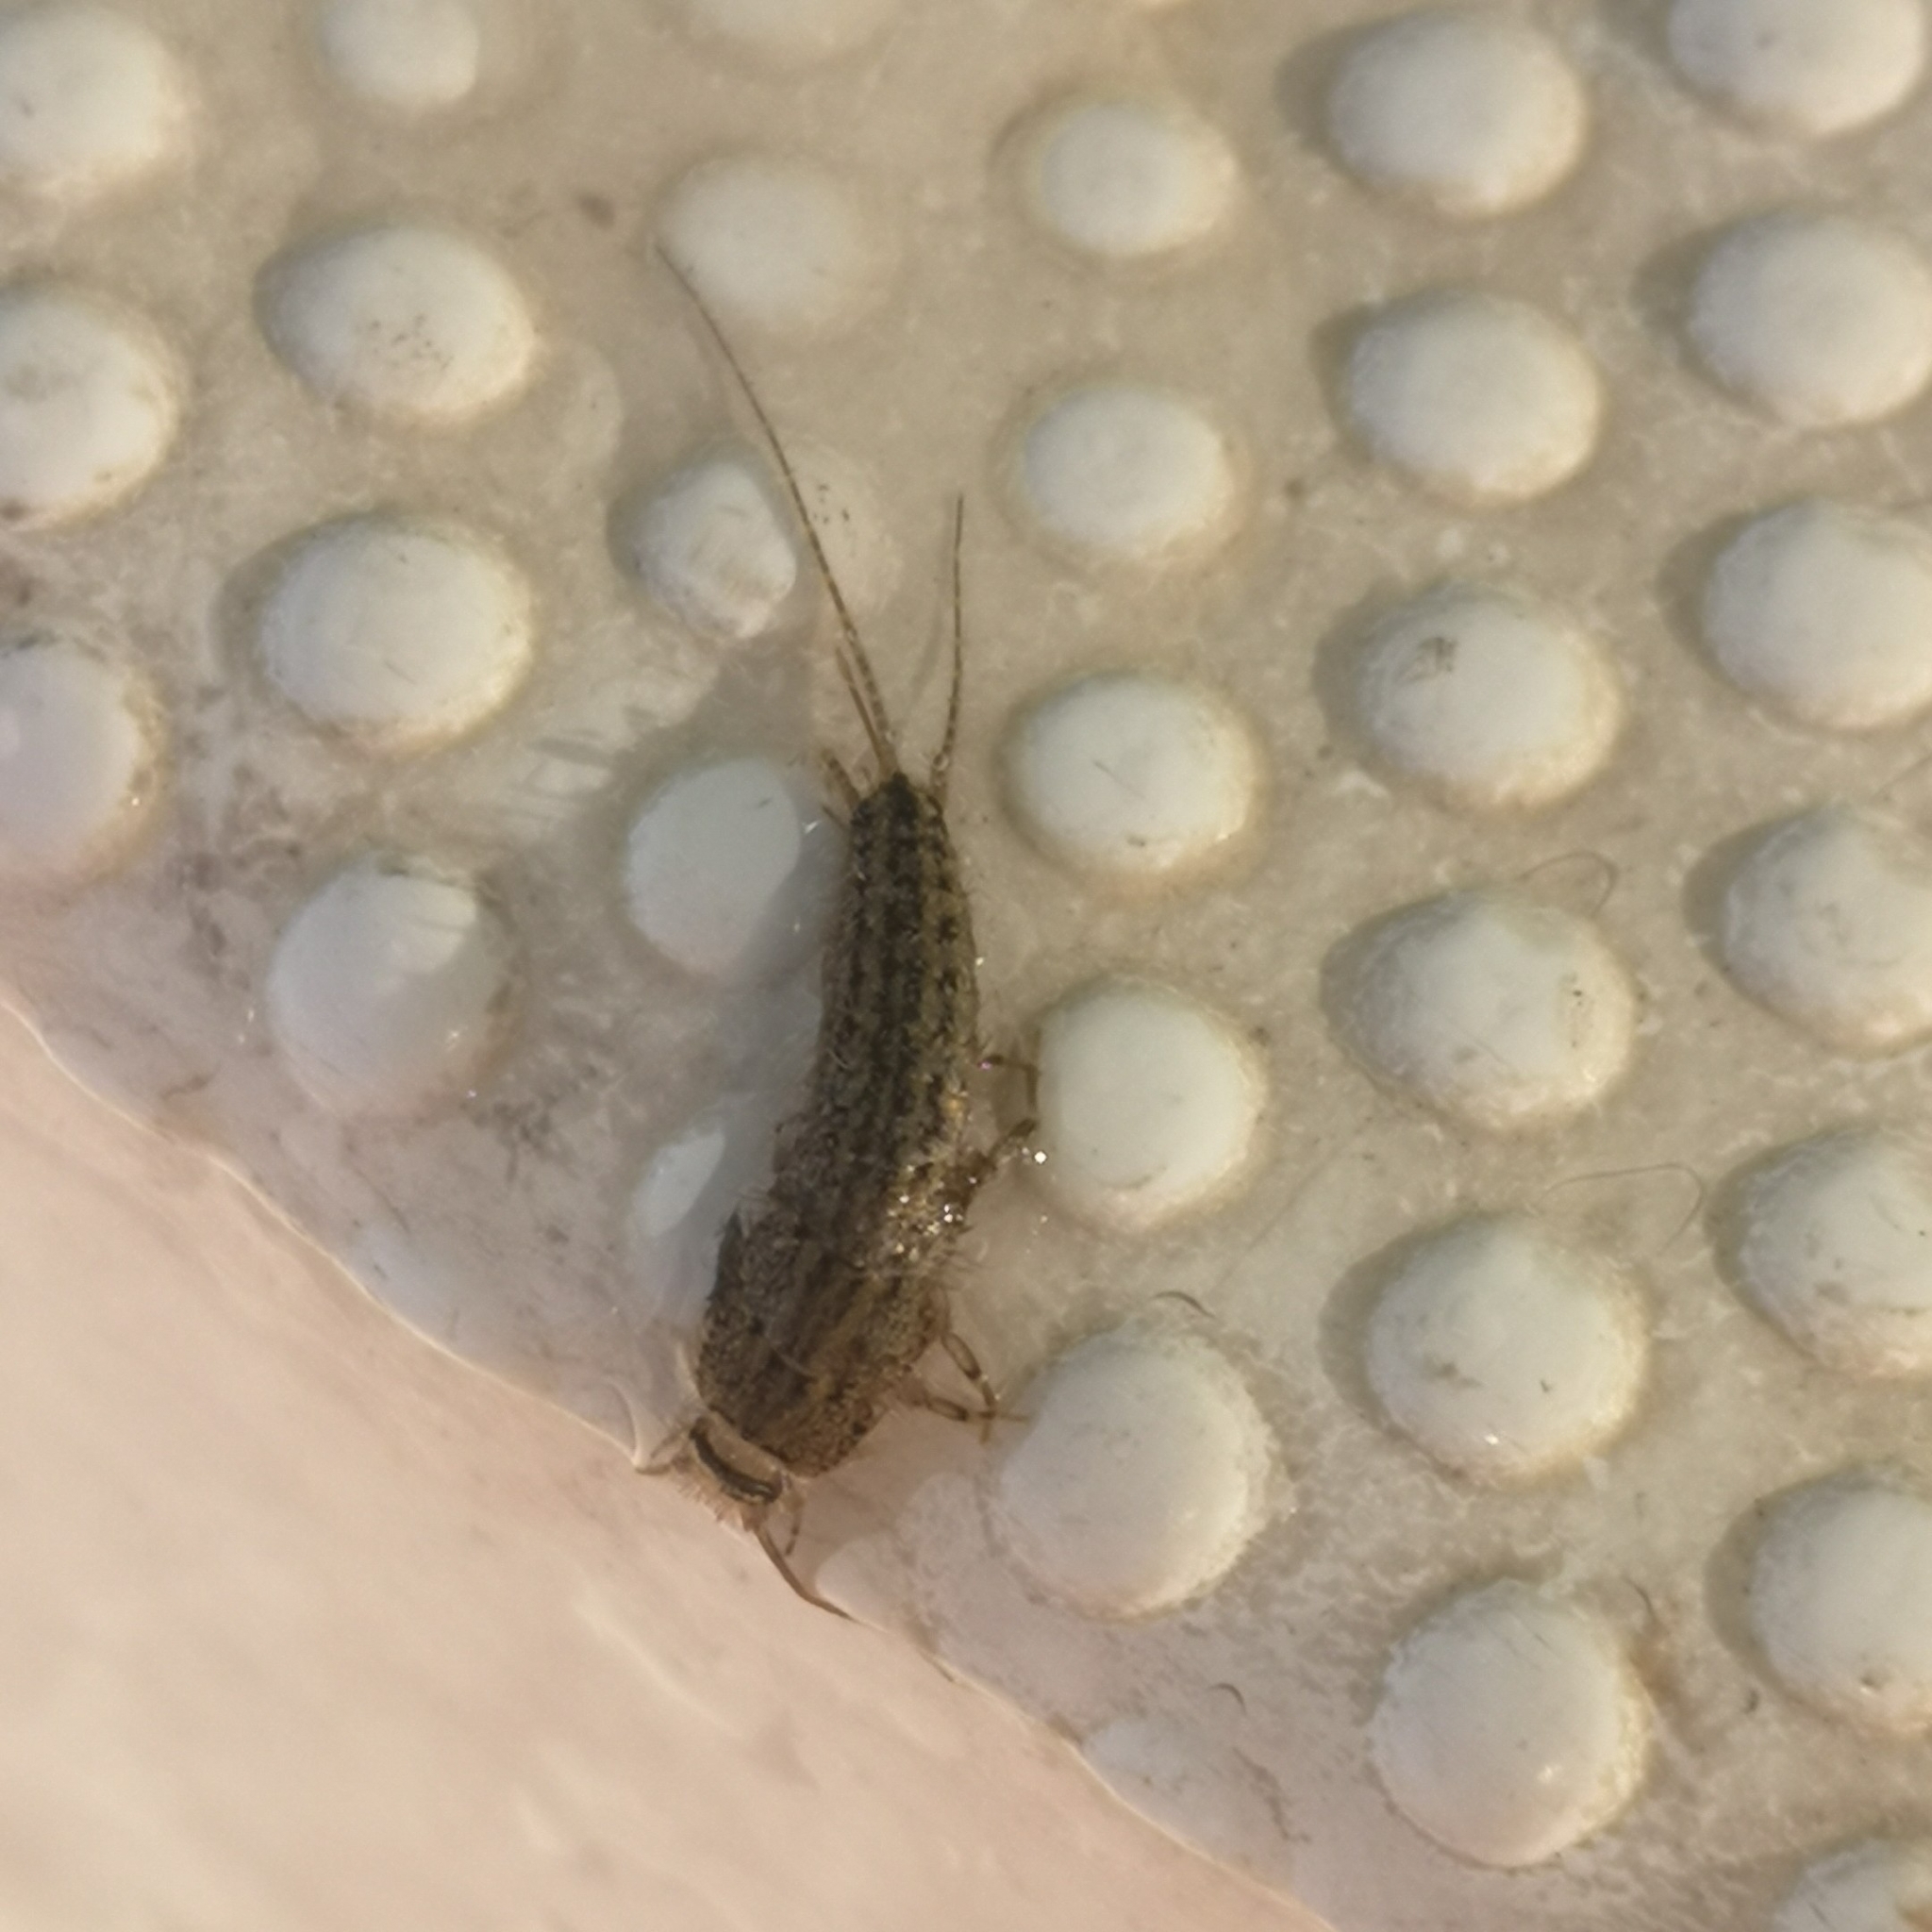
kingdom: Animalia
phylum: Arthropoda
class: Insecta
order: Zygentoma
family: Lepismatidae
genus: Ctenolepisma
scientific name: Ctenolepisma lineata
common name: Four-lined silverfish
